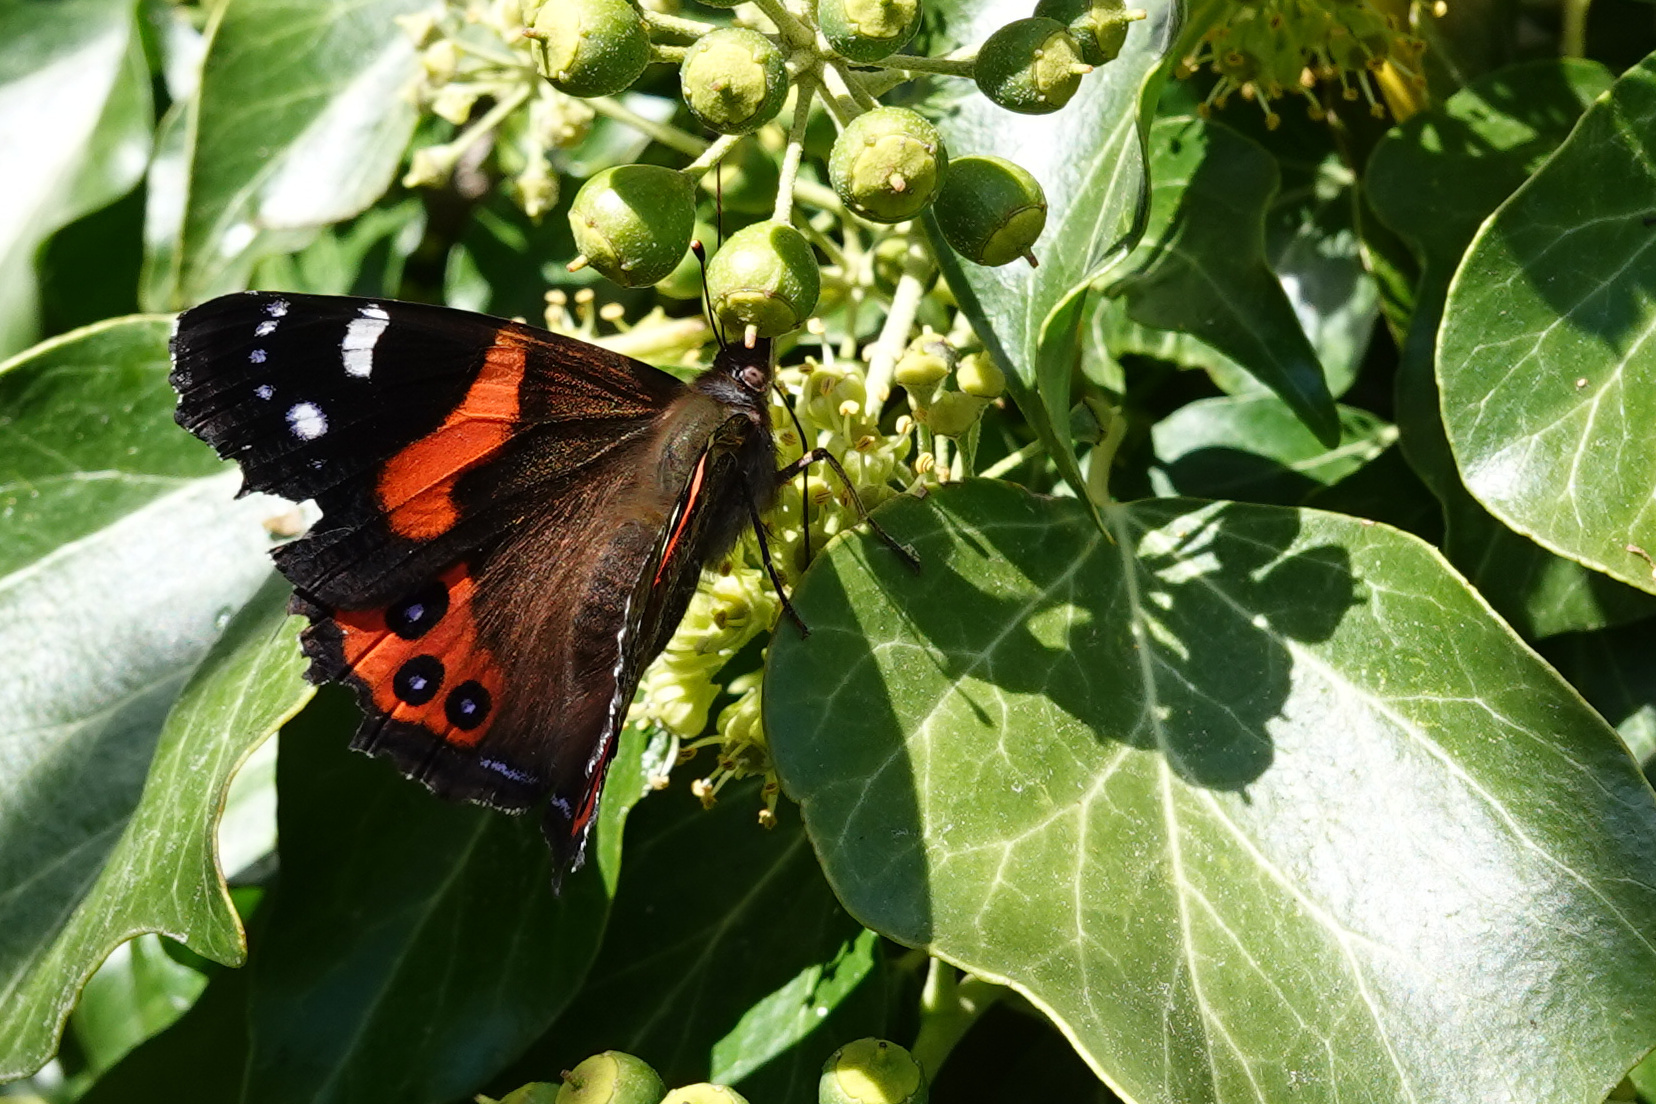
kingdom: Animalia
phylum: Arthropoda
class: Insecta
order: Lepidoptera
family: Nymphalidae
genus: Vanessa
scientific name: Vanessa gonerilla
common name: New zealand red admiral
